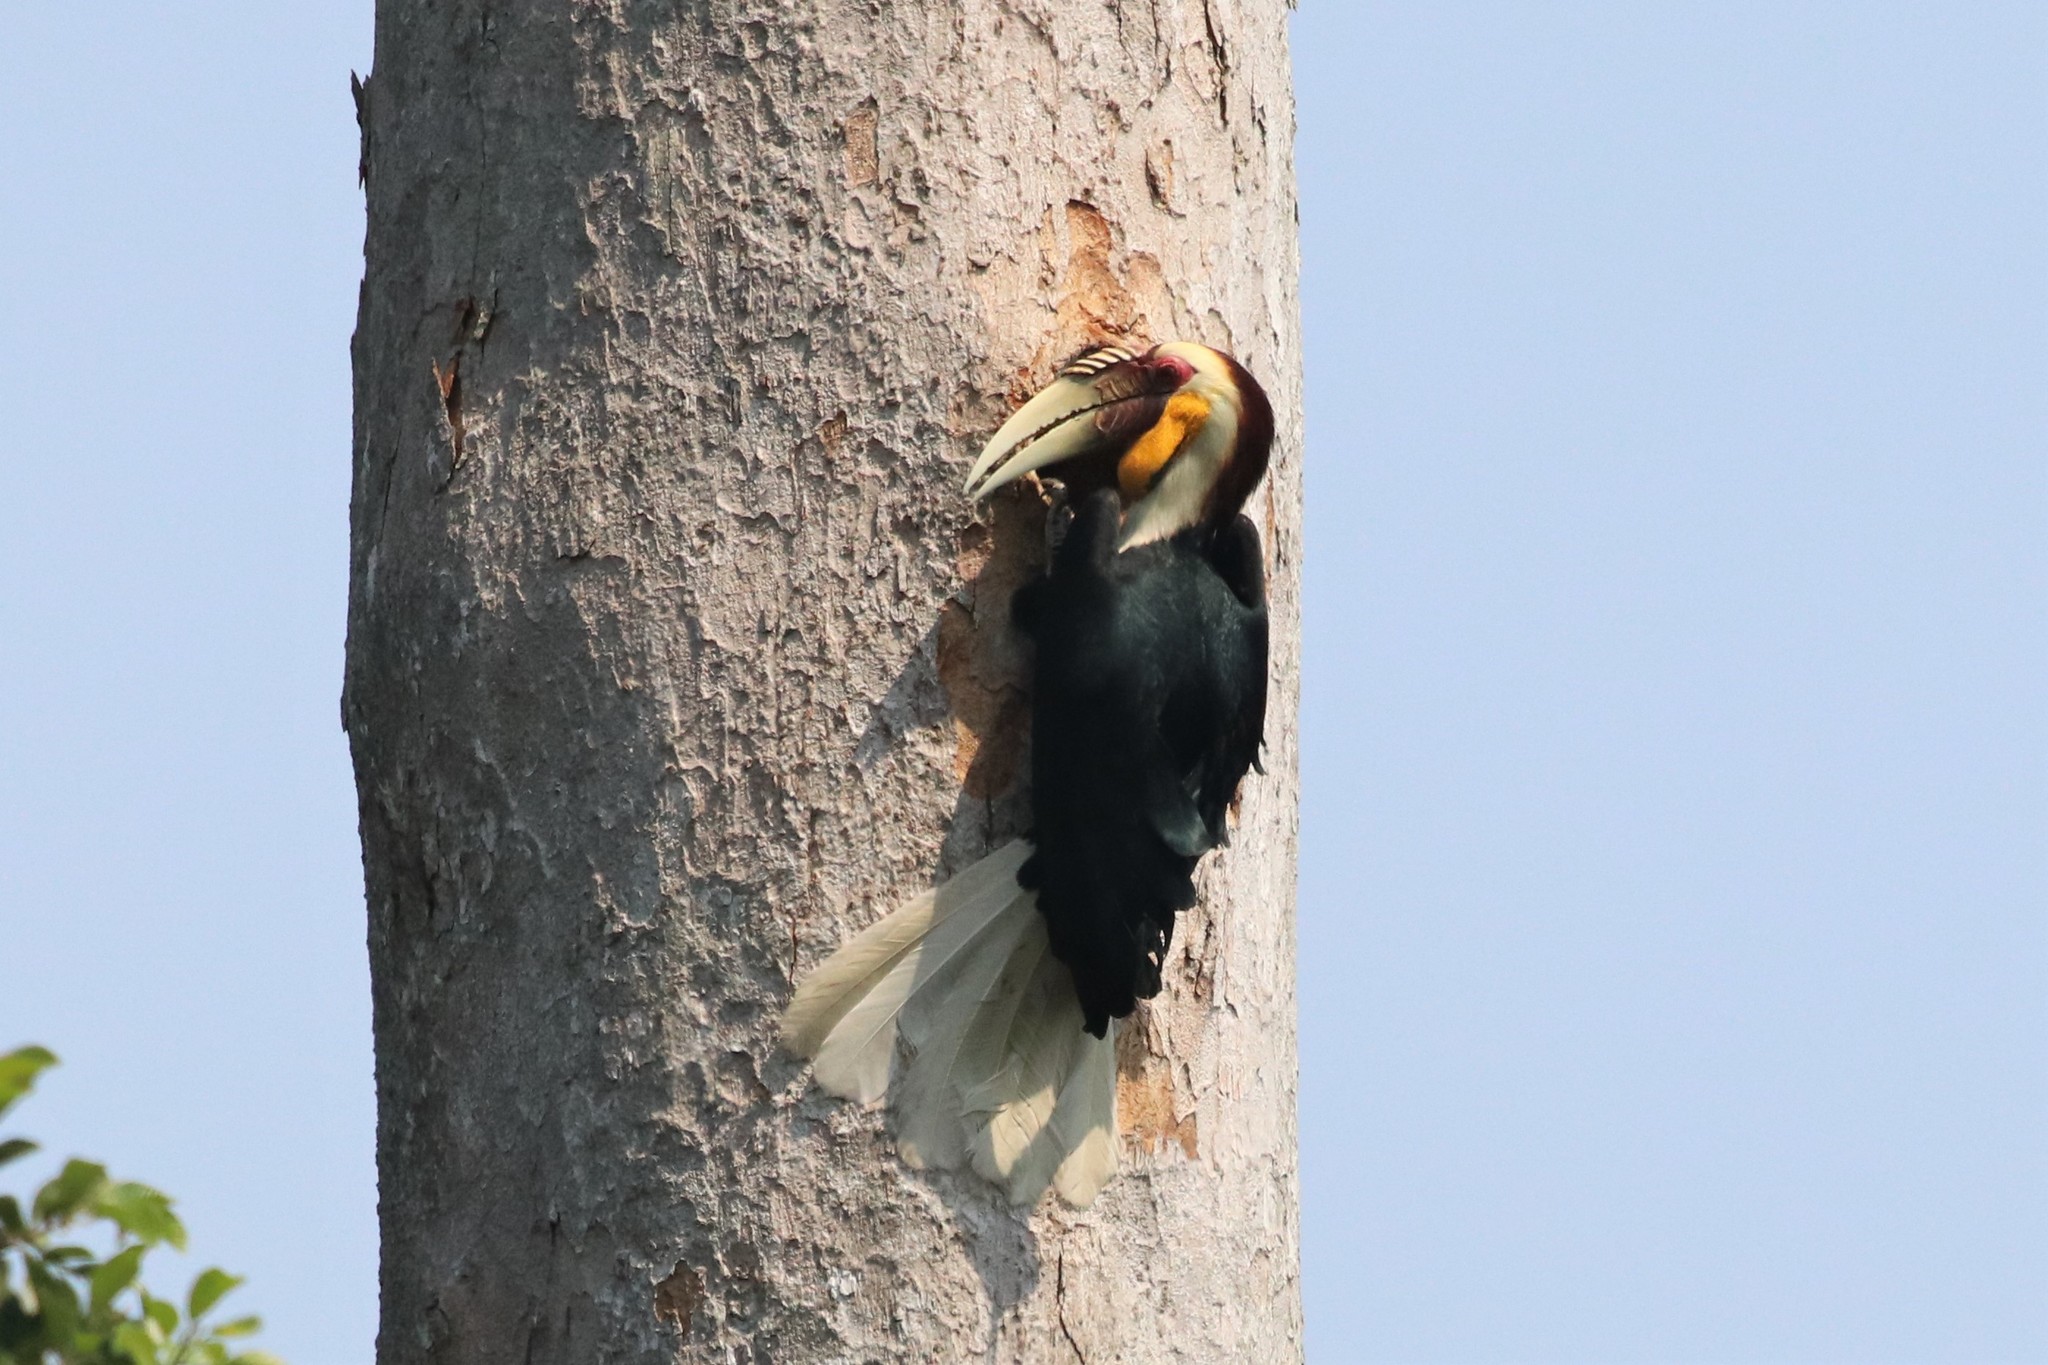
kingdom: Animalia
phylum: Chordata
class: Aves
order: Bucerotiformes
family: Bucerotidae
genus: Rhyticeros
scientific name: Rhyticeros undulatus
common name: Wreathed hornbill
